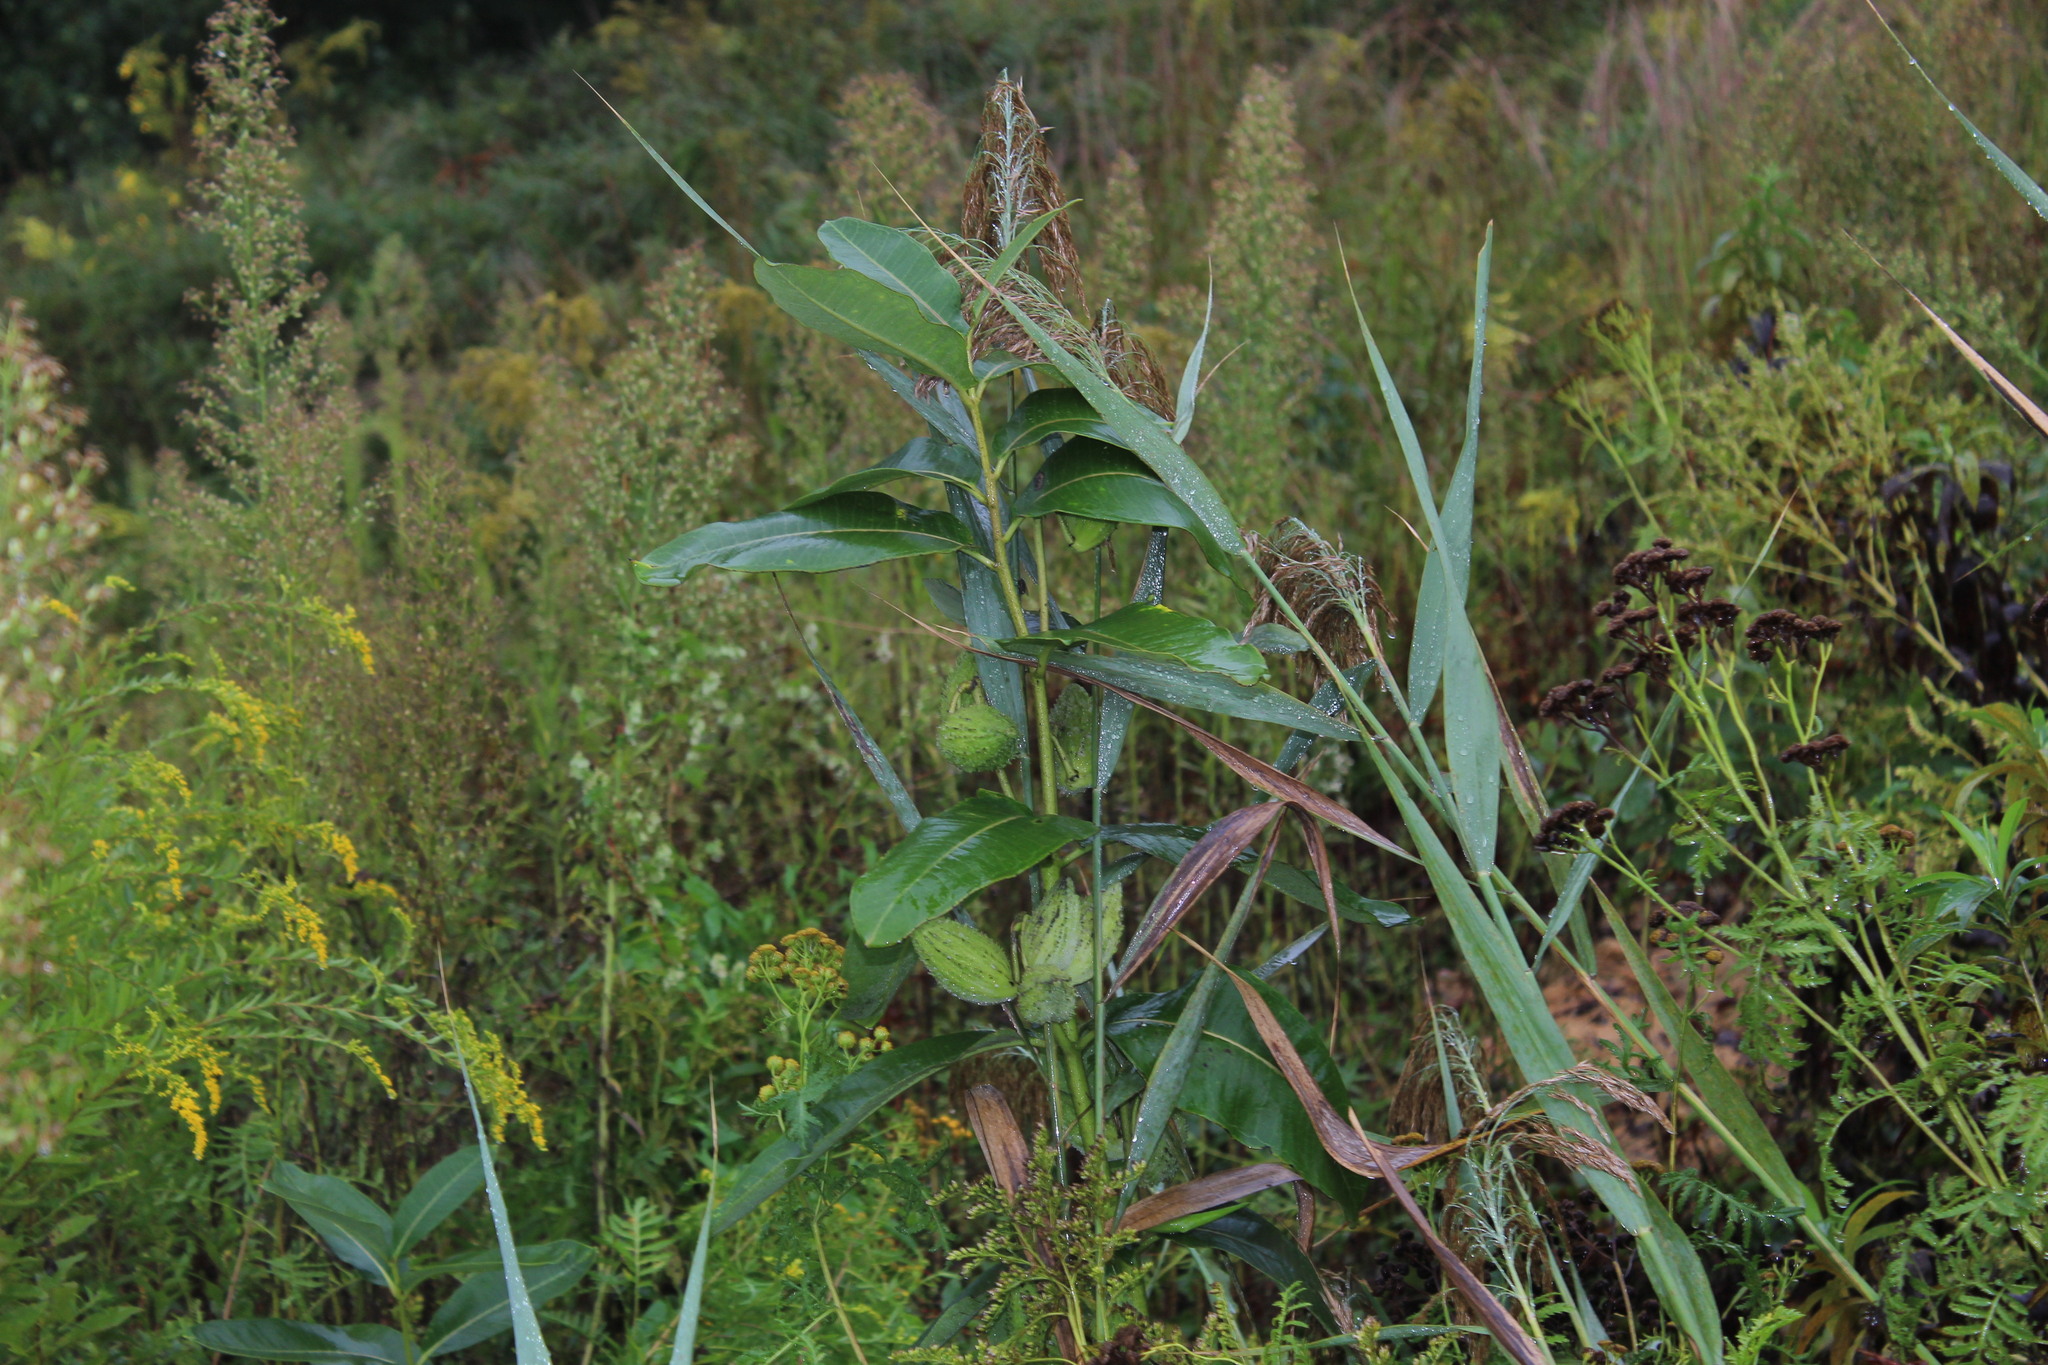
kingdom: Plantae
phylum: Tracheophyta
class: Magnoliopsida
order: Gentianales
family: Apocynaceae
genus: Asclepias
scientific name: Asclepias syriaca
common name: Common milkweed
